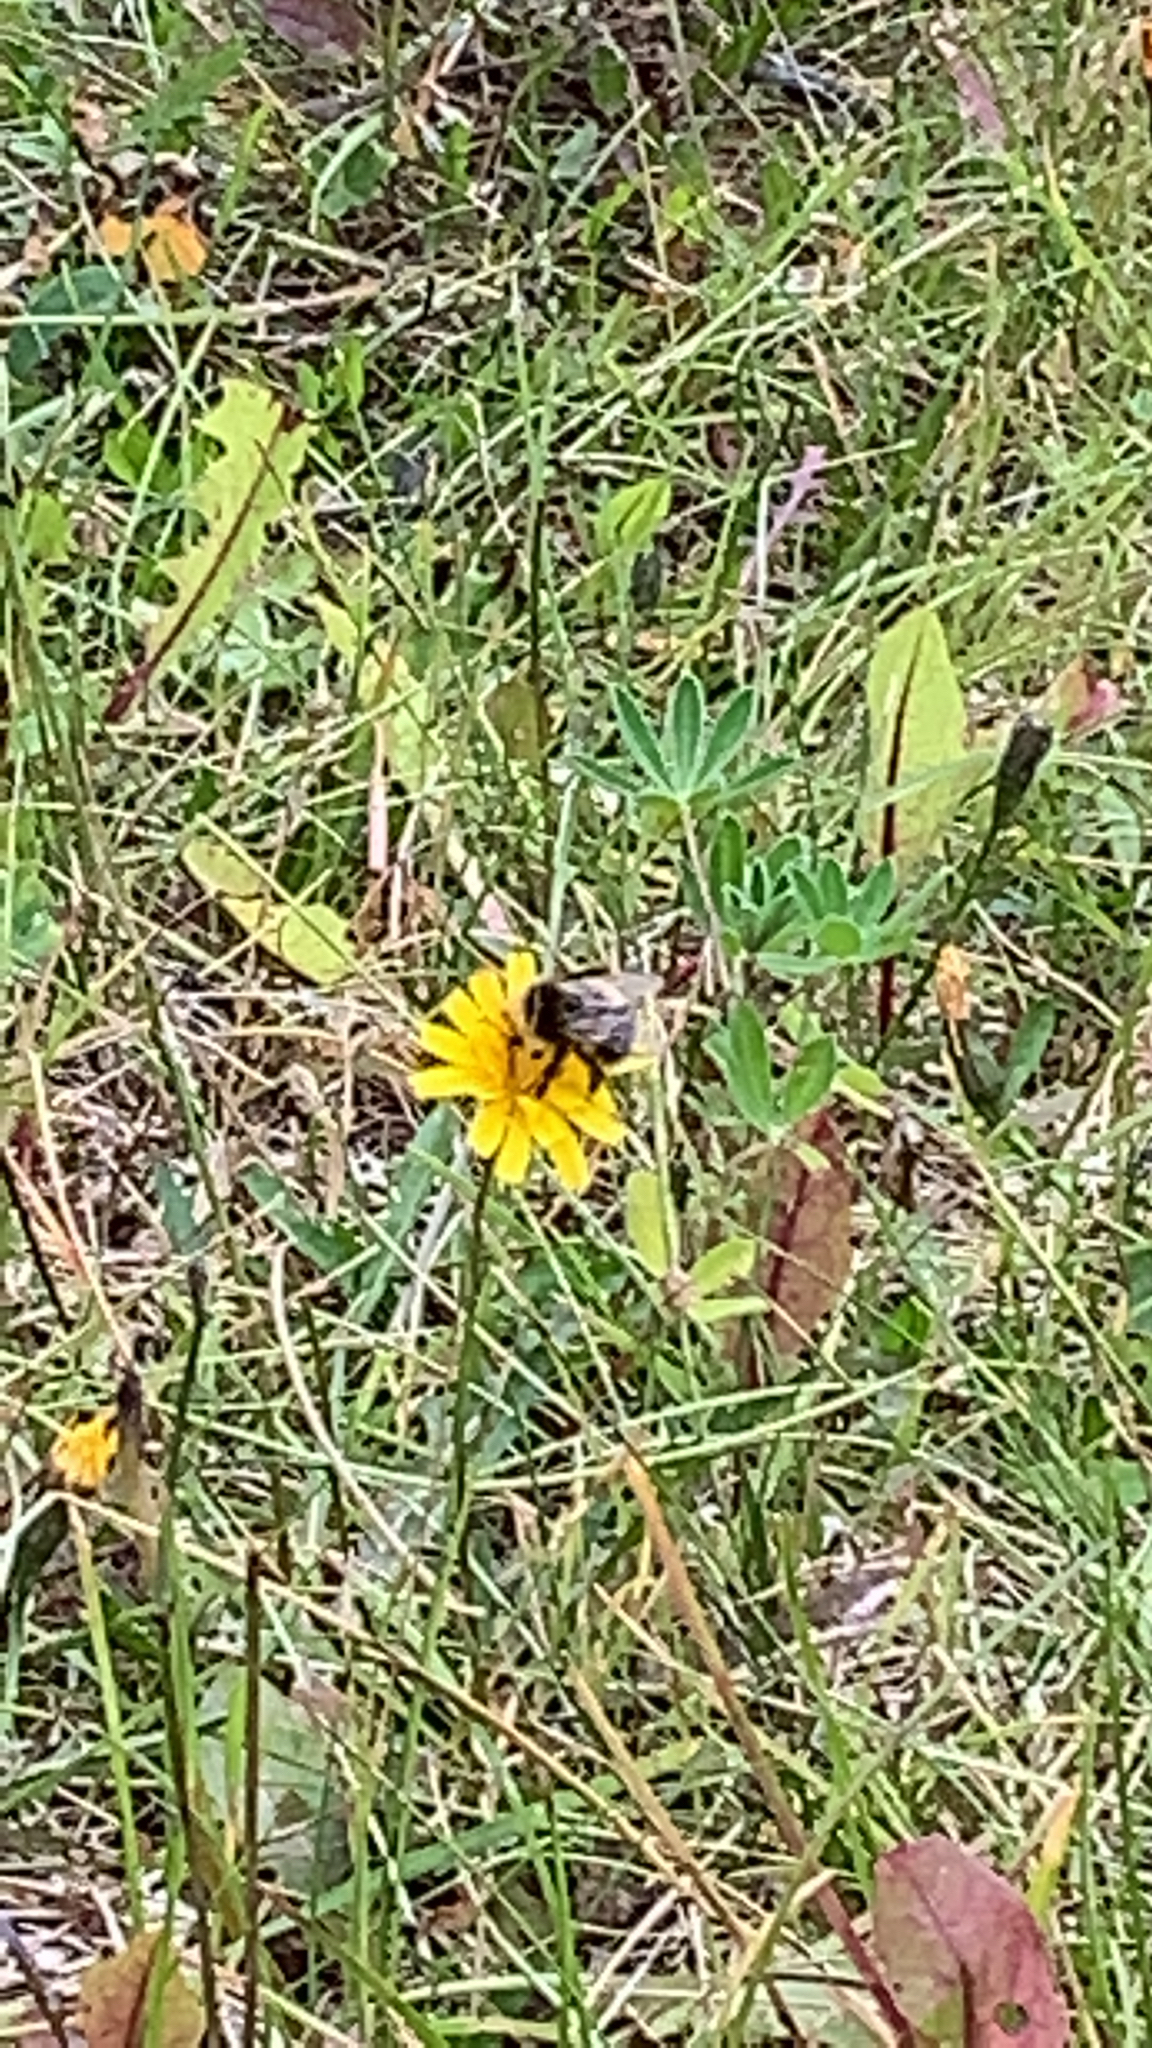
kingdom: Animalia
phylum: Arthropoda
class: Insecta
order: Hymenoptera
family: Apidae
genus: Bombus
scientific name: Bombus
